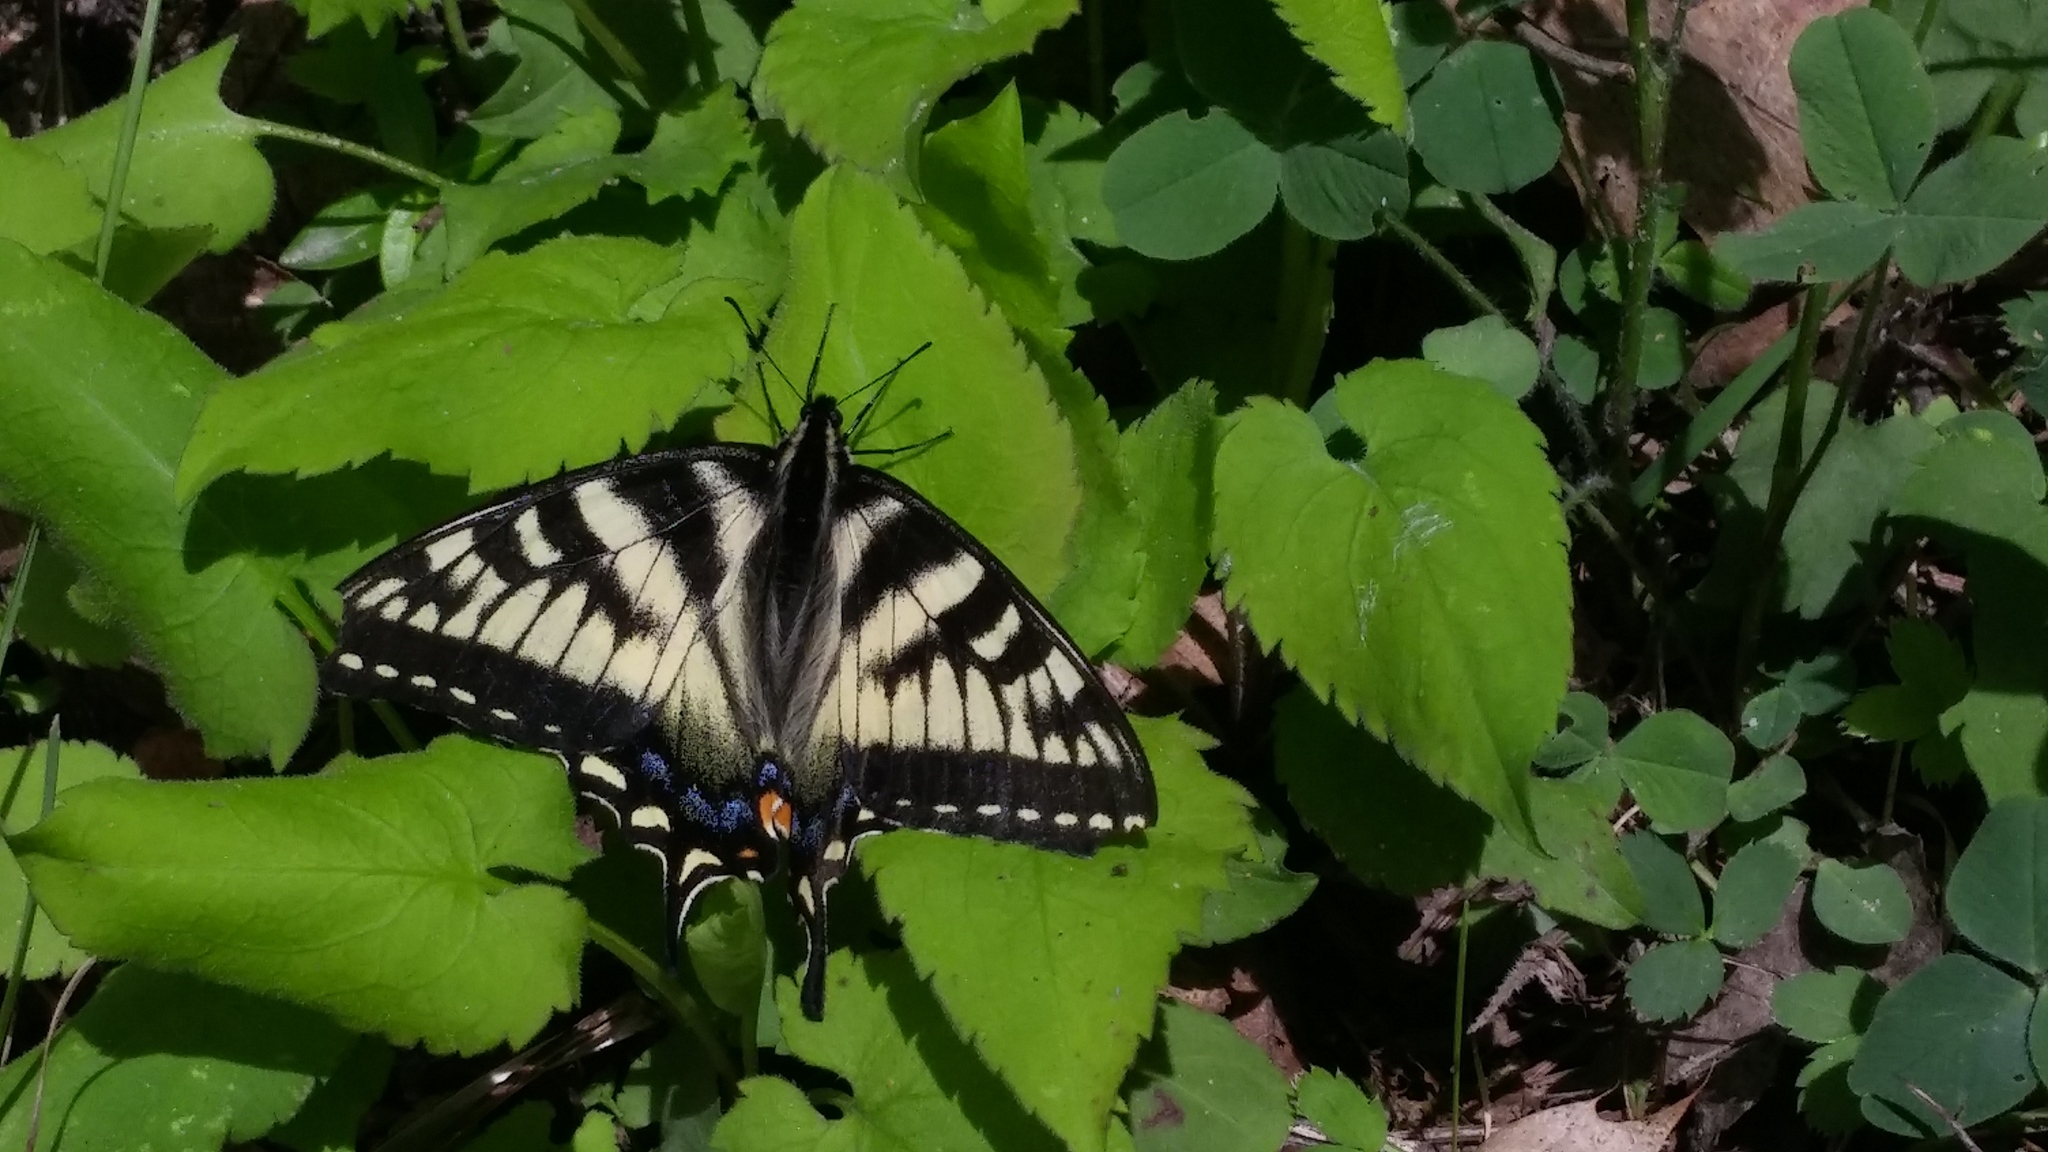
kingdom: Animalia
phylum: Arthropoda
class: Insecta
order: Lepidoptera
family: Papilionidae
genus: Papilio
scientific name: Papilio canadensis
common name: Canadian tiger swallowtail
